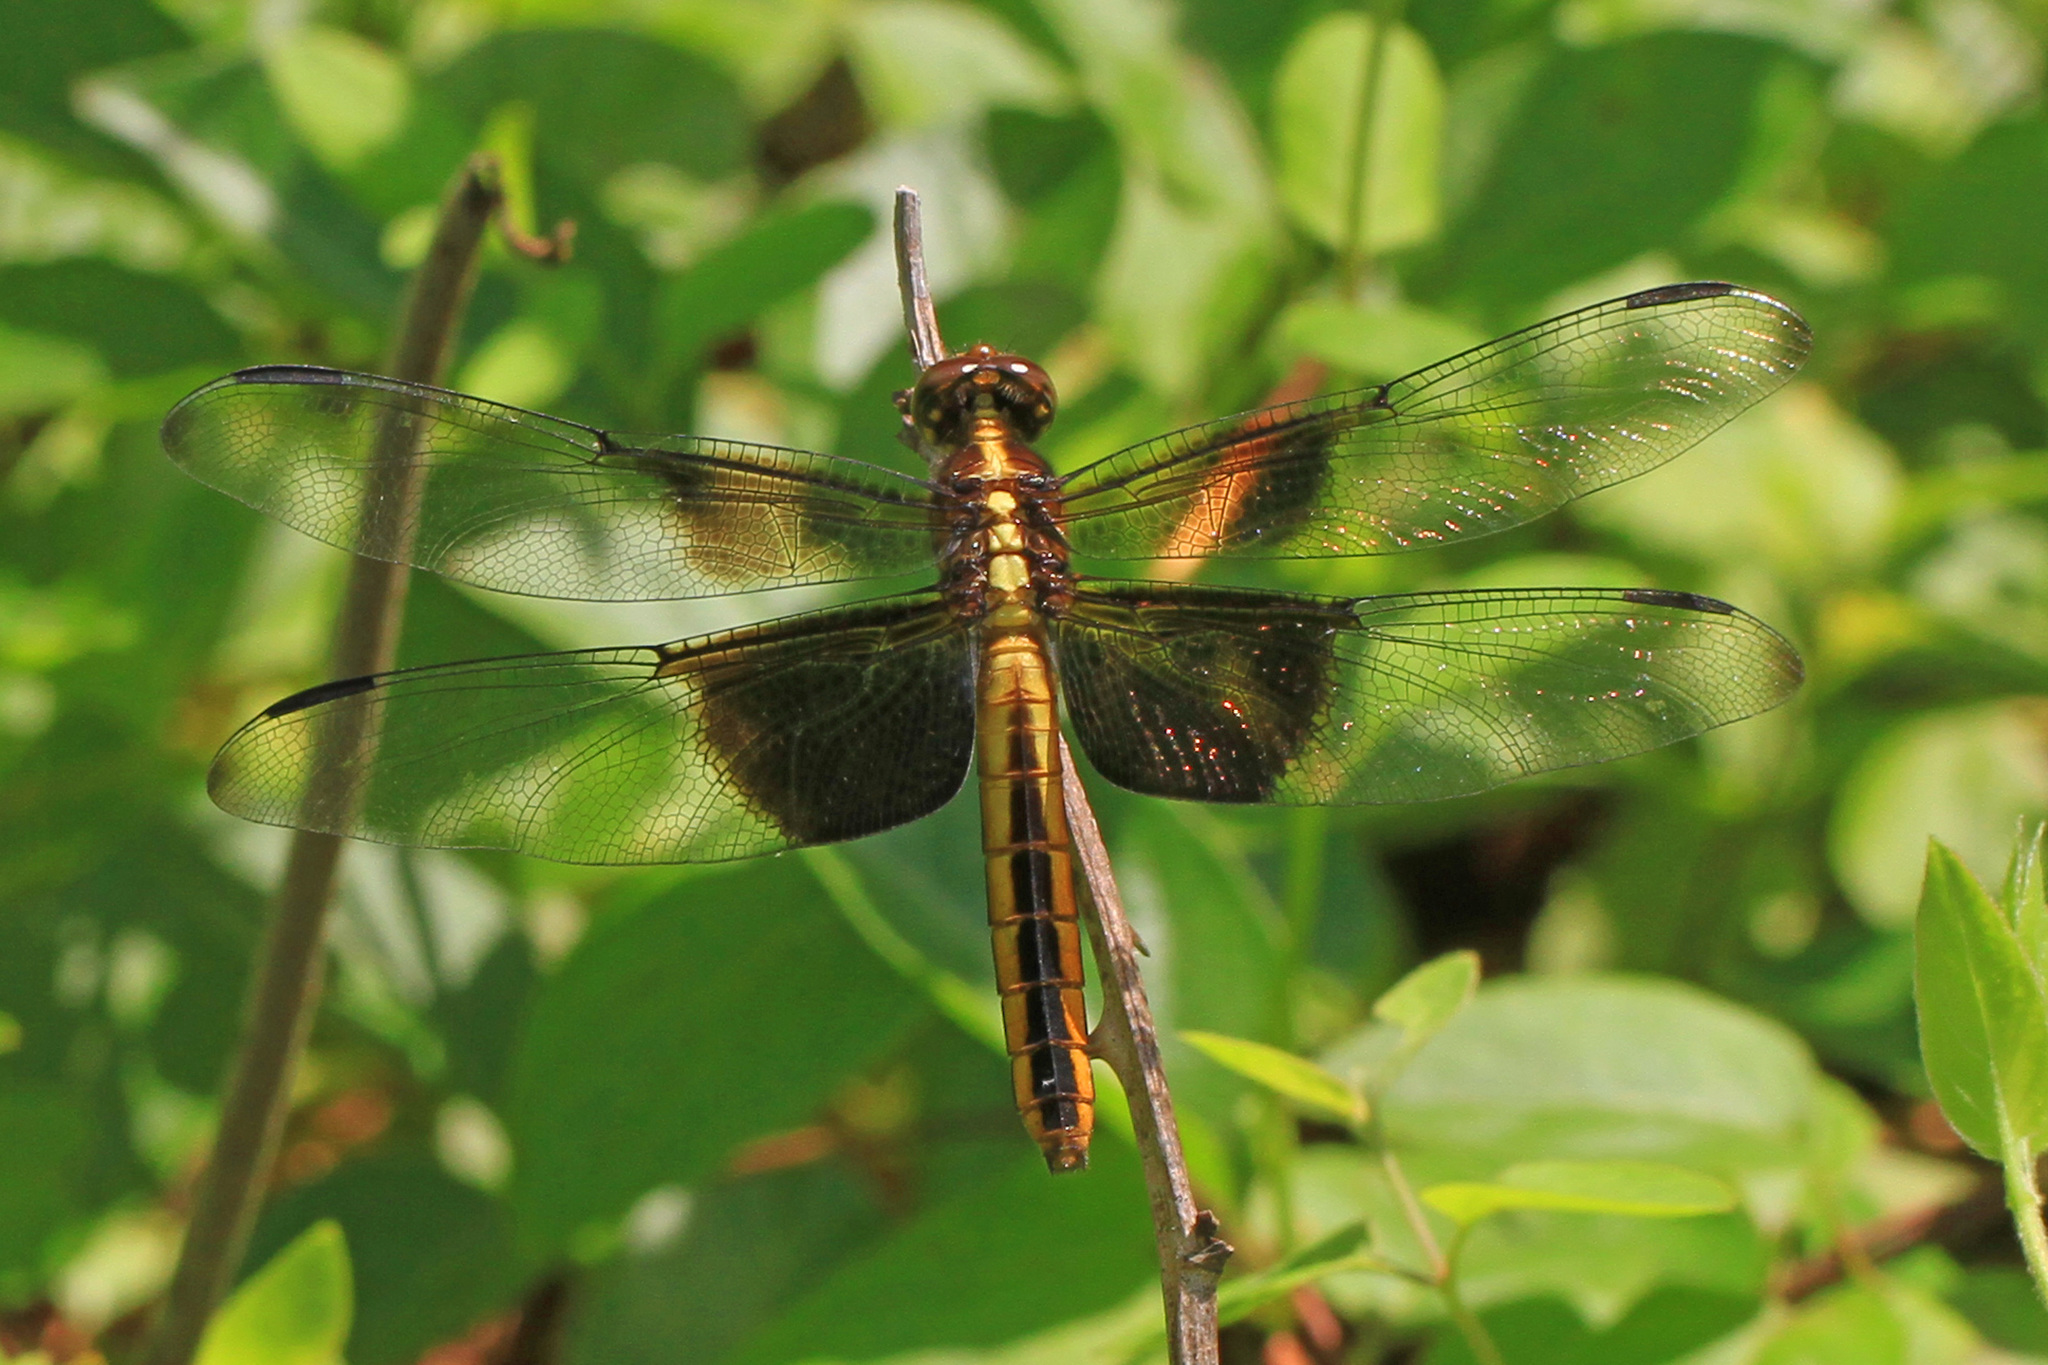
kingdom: Animalia
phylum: Arthropoda
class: Insecta
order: Odonata
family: Libellulidae
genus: Libellula
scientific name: Libellula luctuosa
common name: Widow skimmer
